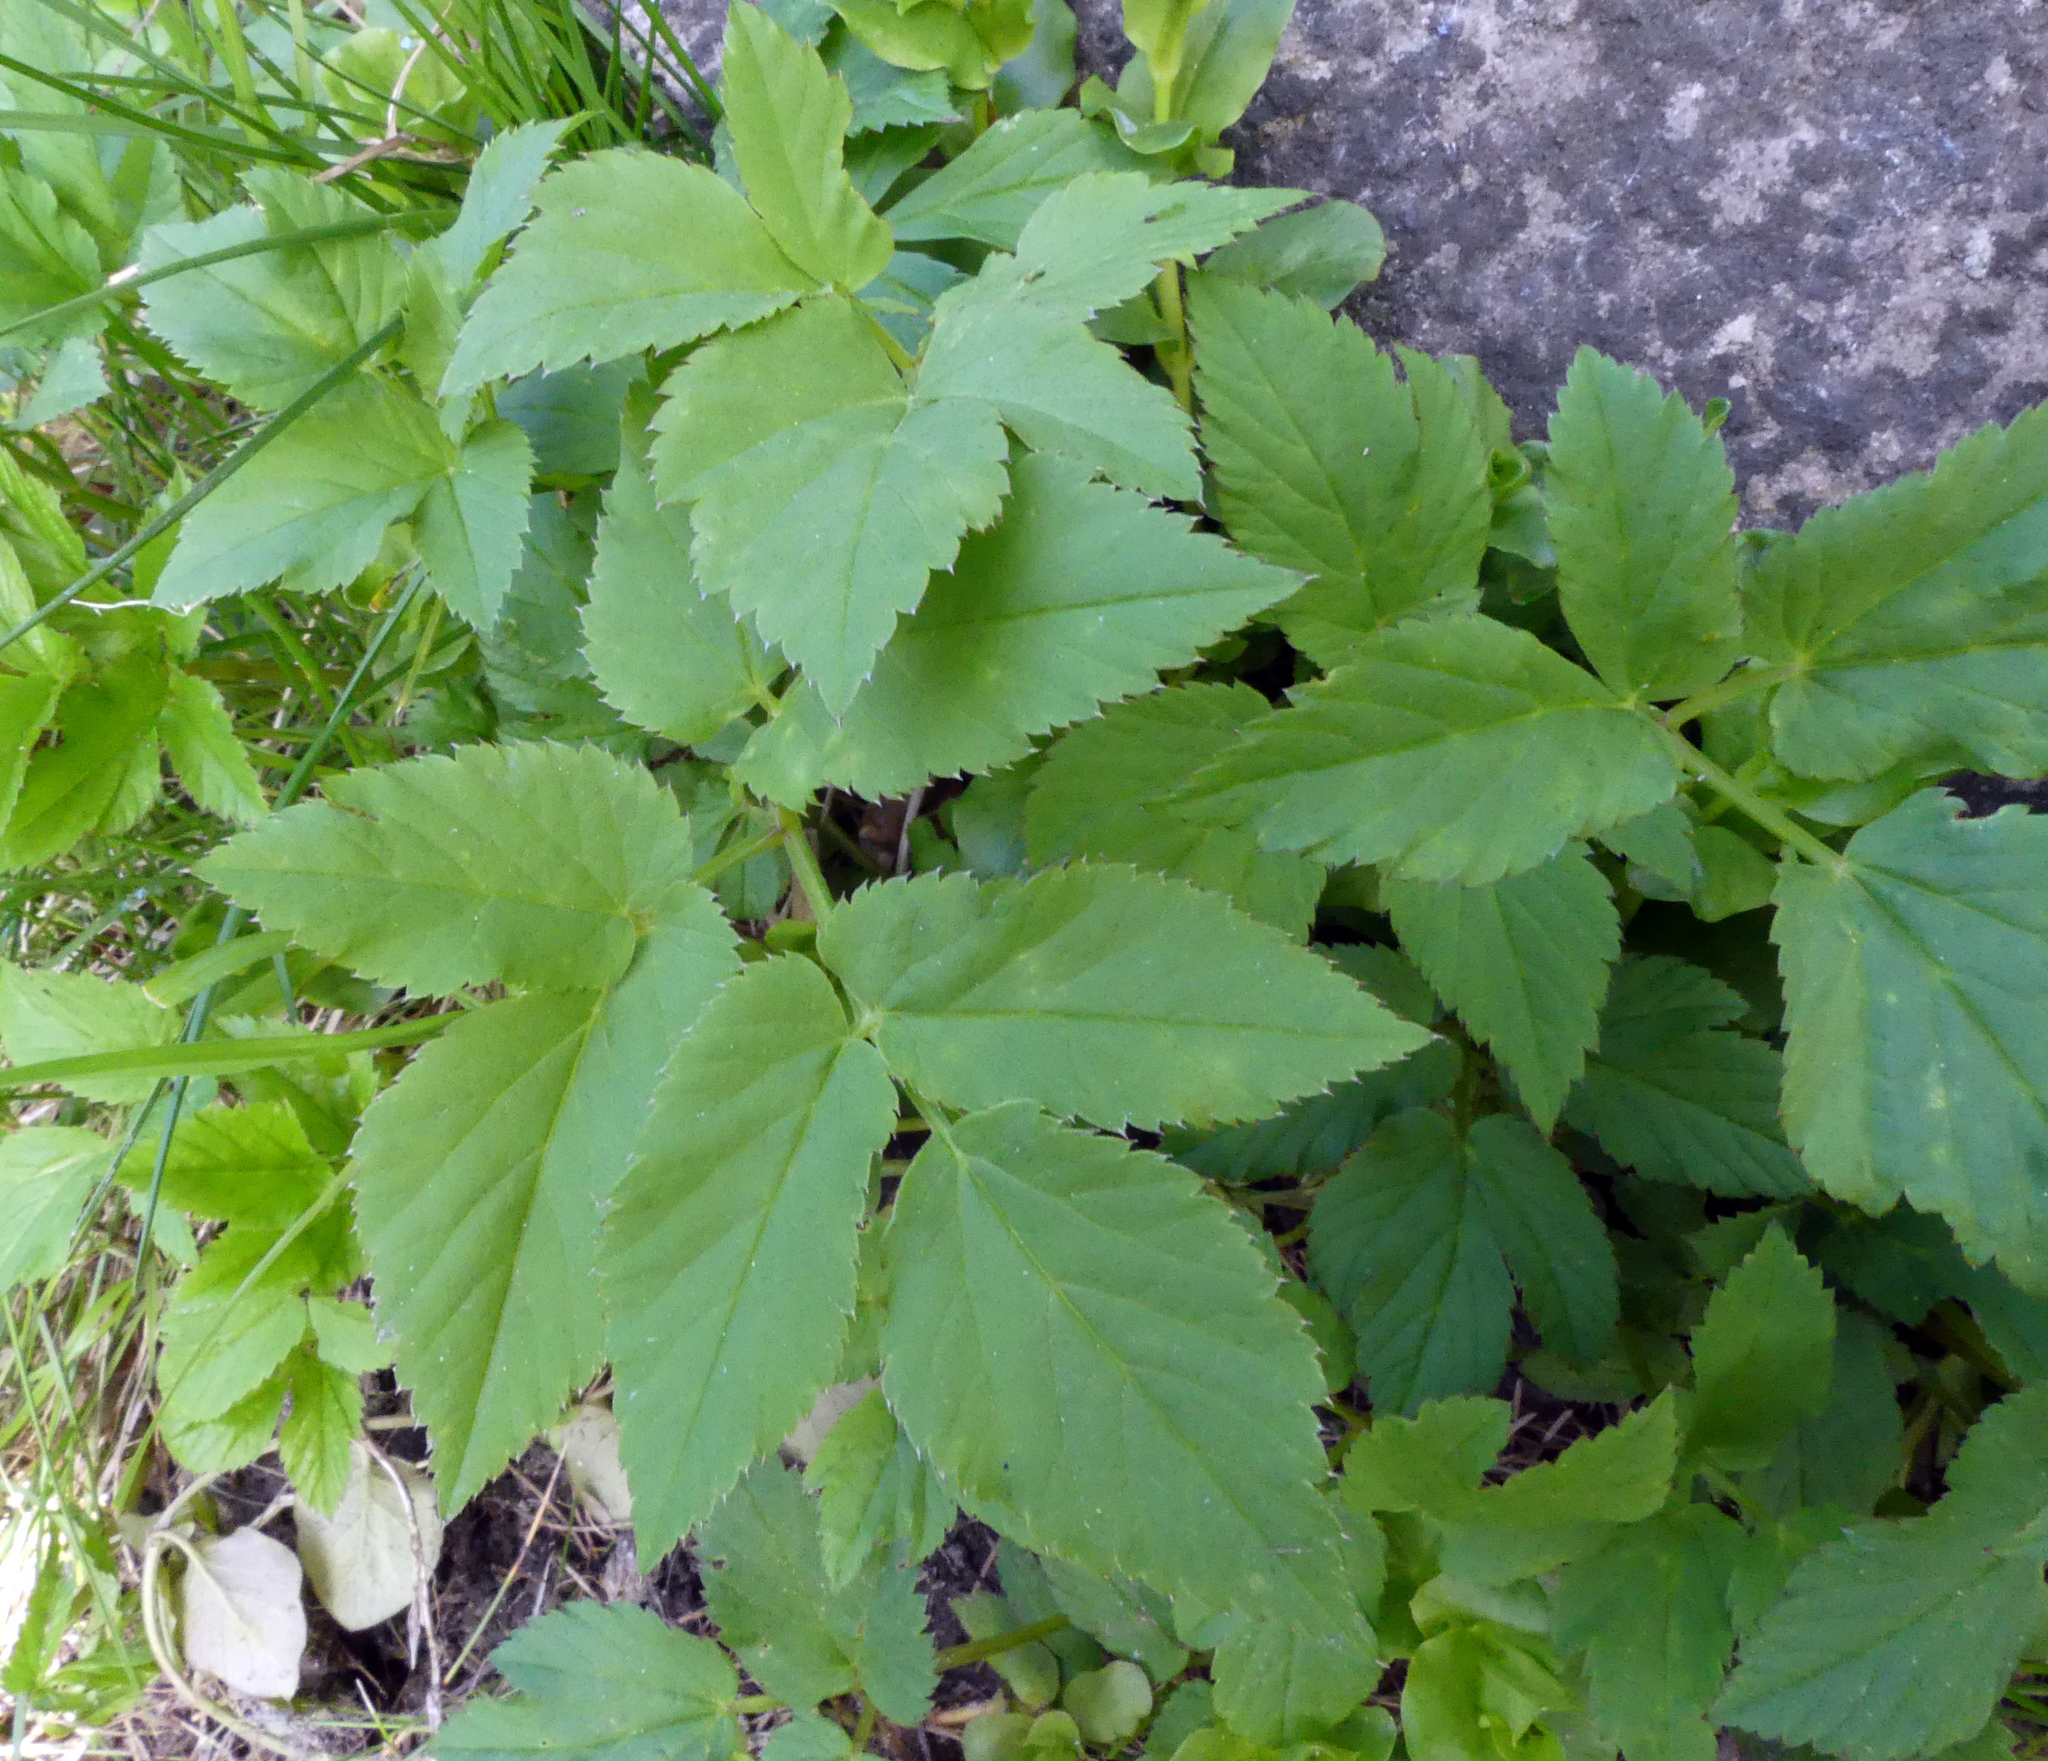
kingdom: Plantae
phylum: Tracheophyta
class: Magnoliopsida
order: Apiales
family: Apiaceae
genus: Aegopodium
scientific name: Aegopodium podagraria
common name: Ground-elder
